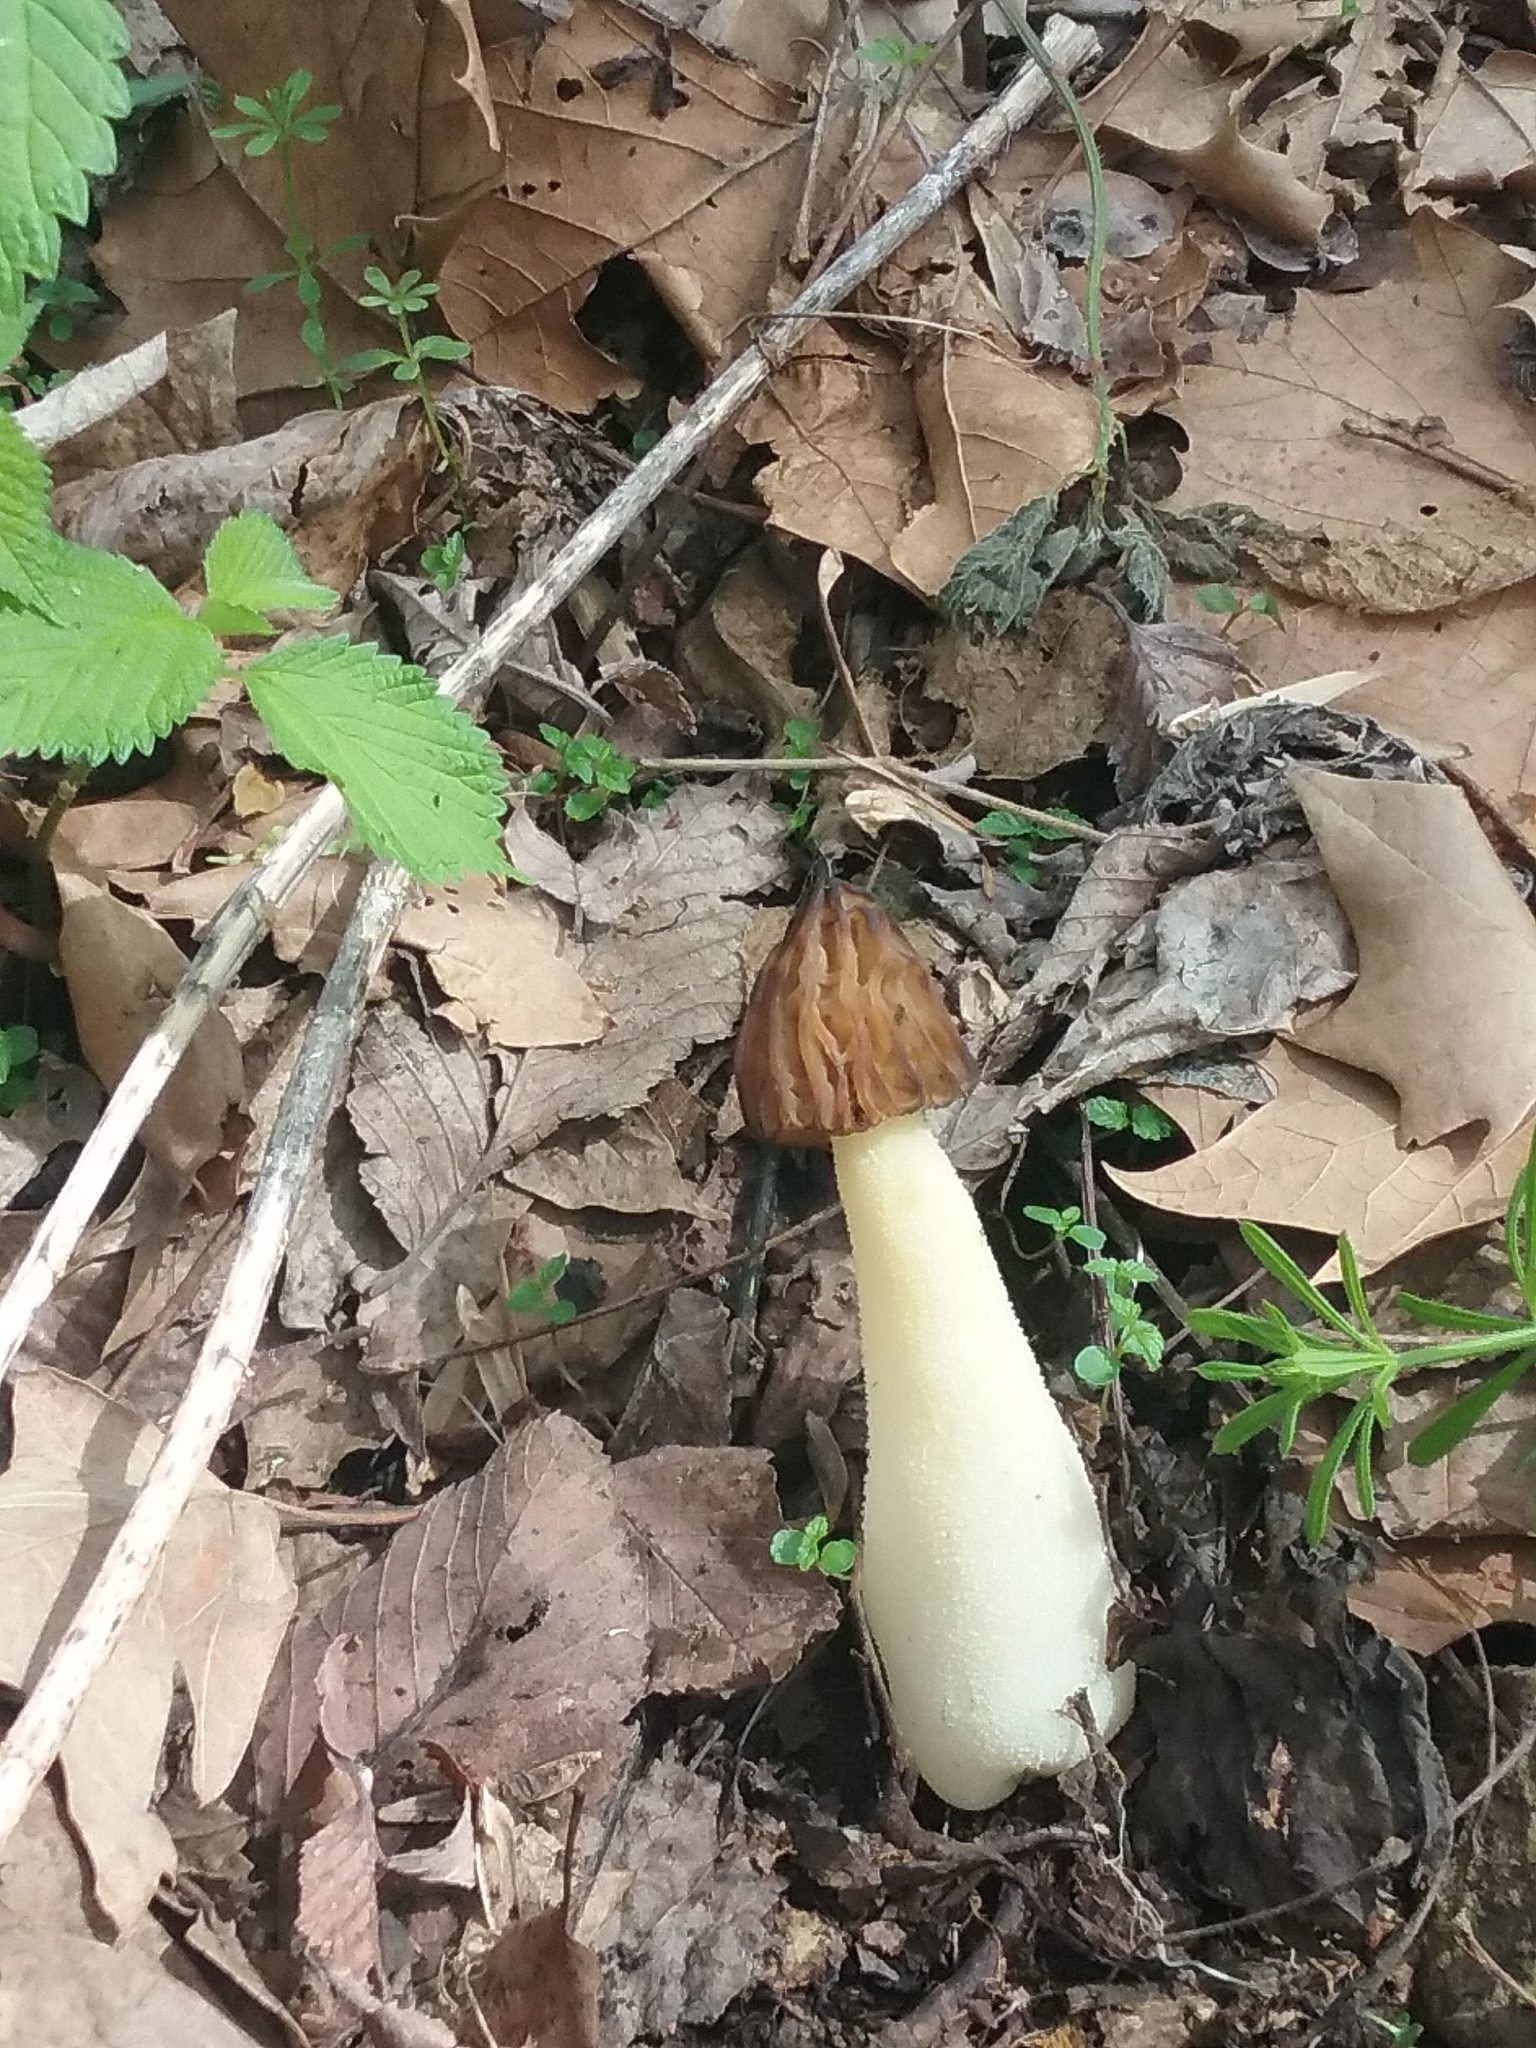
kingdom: Fungi
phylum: Ascomycota
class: Pezizomycetes
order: Pezizales
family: Morchellaceae
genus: Morchella
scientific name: Morchella punctipes
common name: Half-free morel
